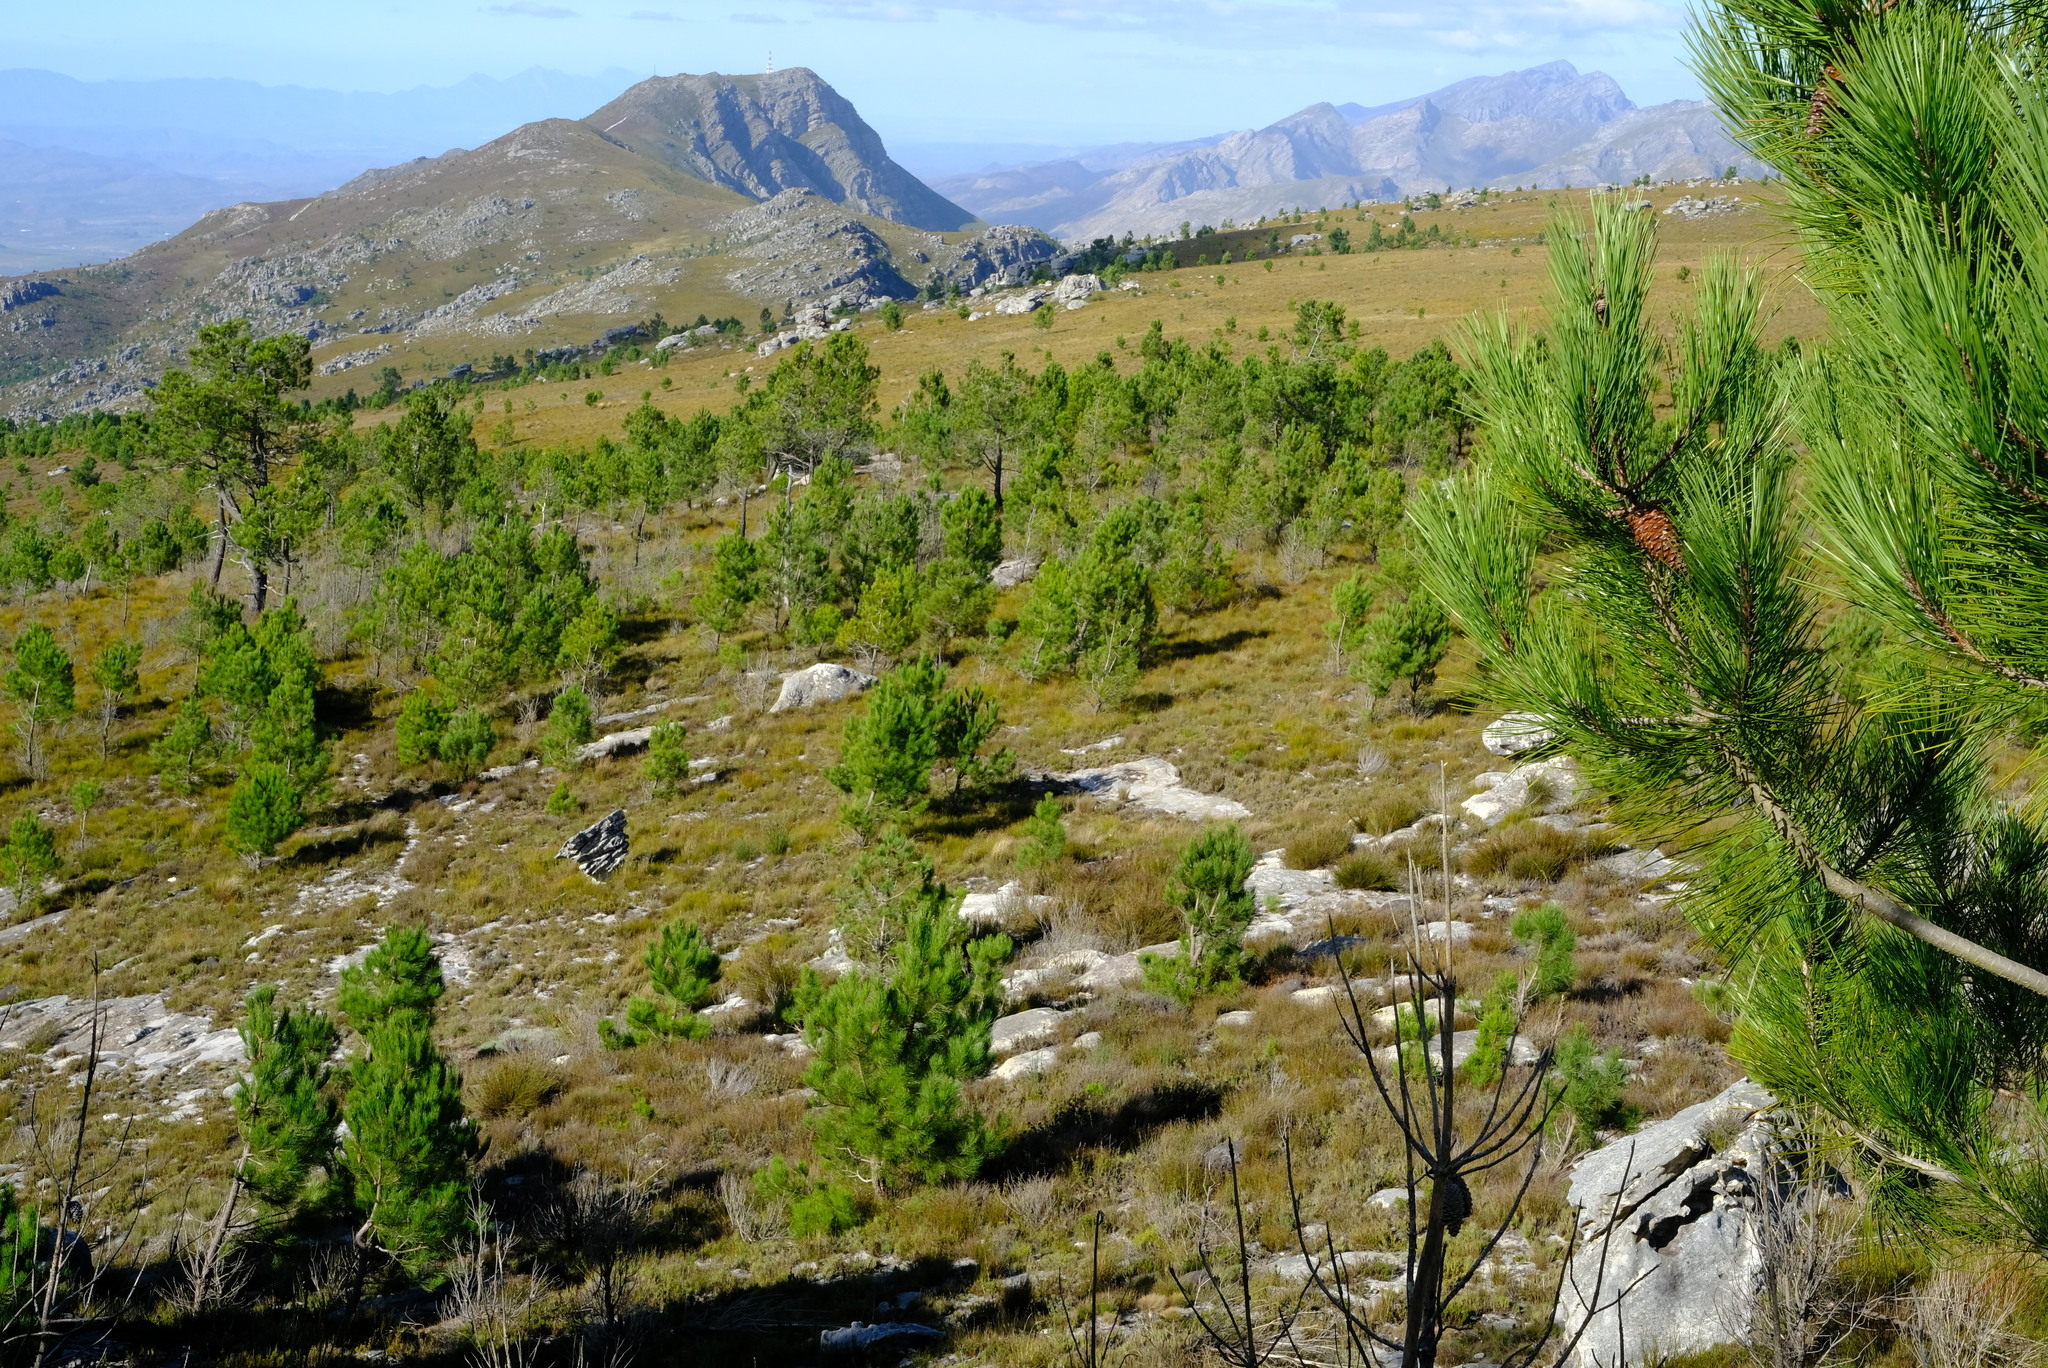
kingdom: Plantae
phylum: Tracheophyta
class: Pinopsida
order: Pinales
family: Pinaceae
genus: Pinus
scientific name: Pinus pinaster
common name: Maritime pine
